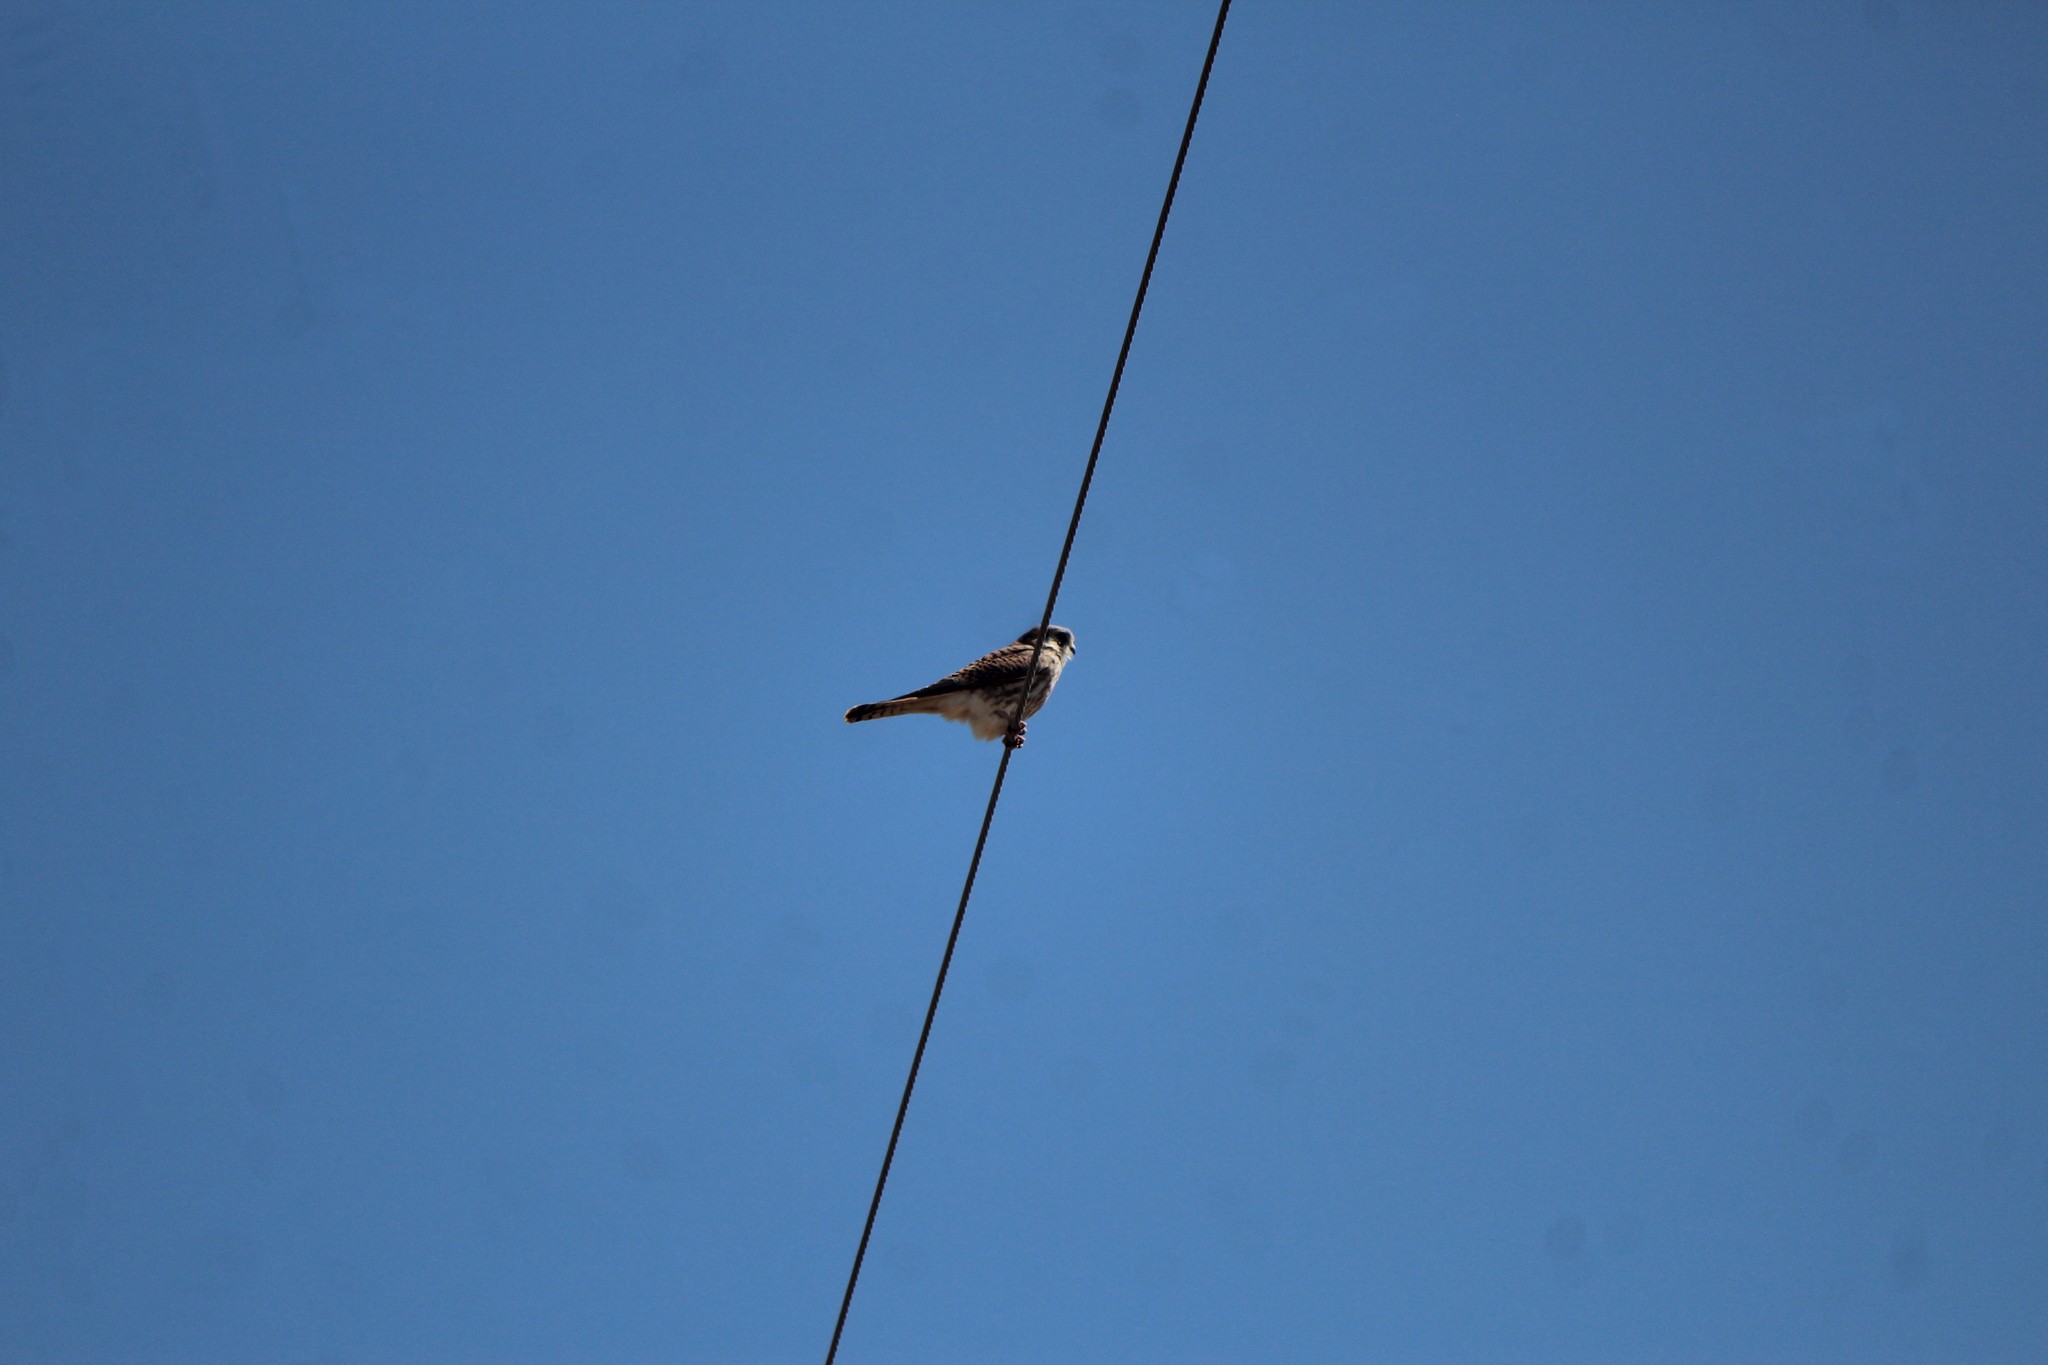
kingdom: Animalia
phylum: Chordata
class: Aves
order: Falconiformes
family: Falconidae
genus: Falco
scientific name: Falco sparverius
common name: American kestrel
